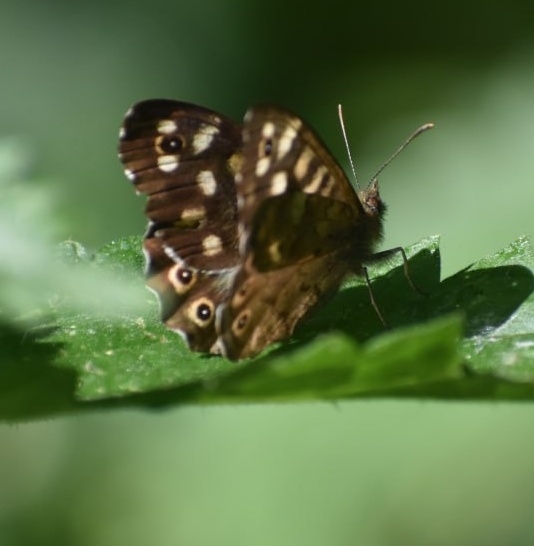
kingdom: Animalia
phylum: Arthropoda
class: Insecta
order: Lepidoptera
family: Nymphalidae
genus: Pararge
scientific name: Pararge aegeria
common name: Speckled wood
